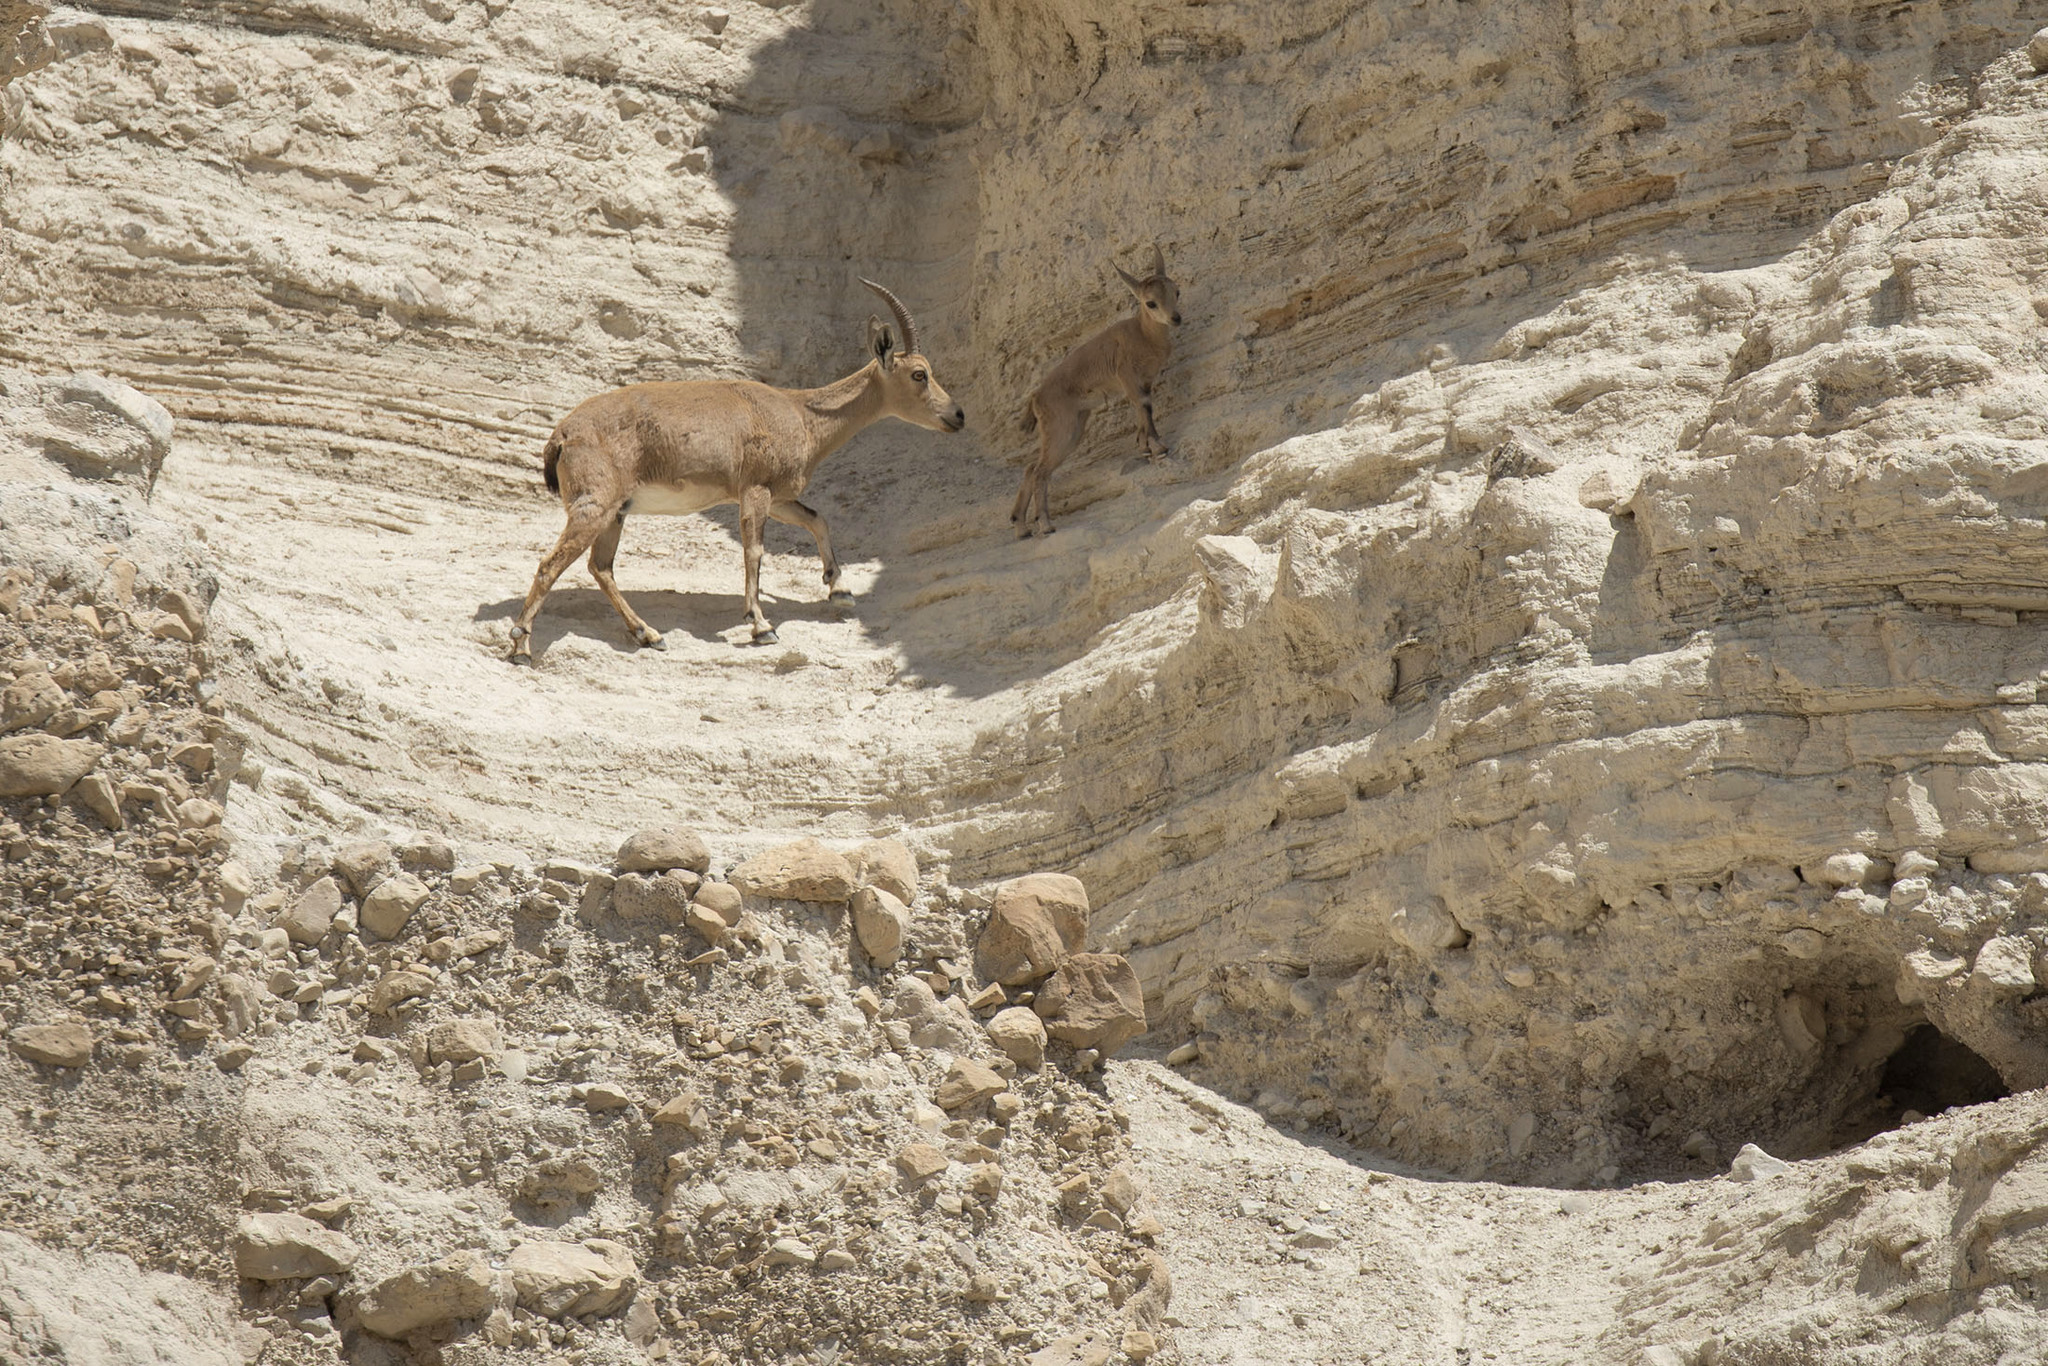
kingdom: Animalia
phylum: Chordata
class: Mammalia
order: Artiodactyla
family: Bovidae
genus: Capra
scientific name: Capra nubiana
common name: Nubian ibex
